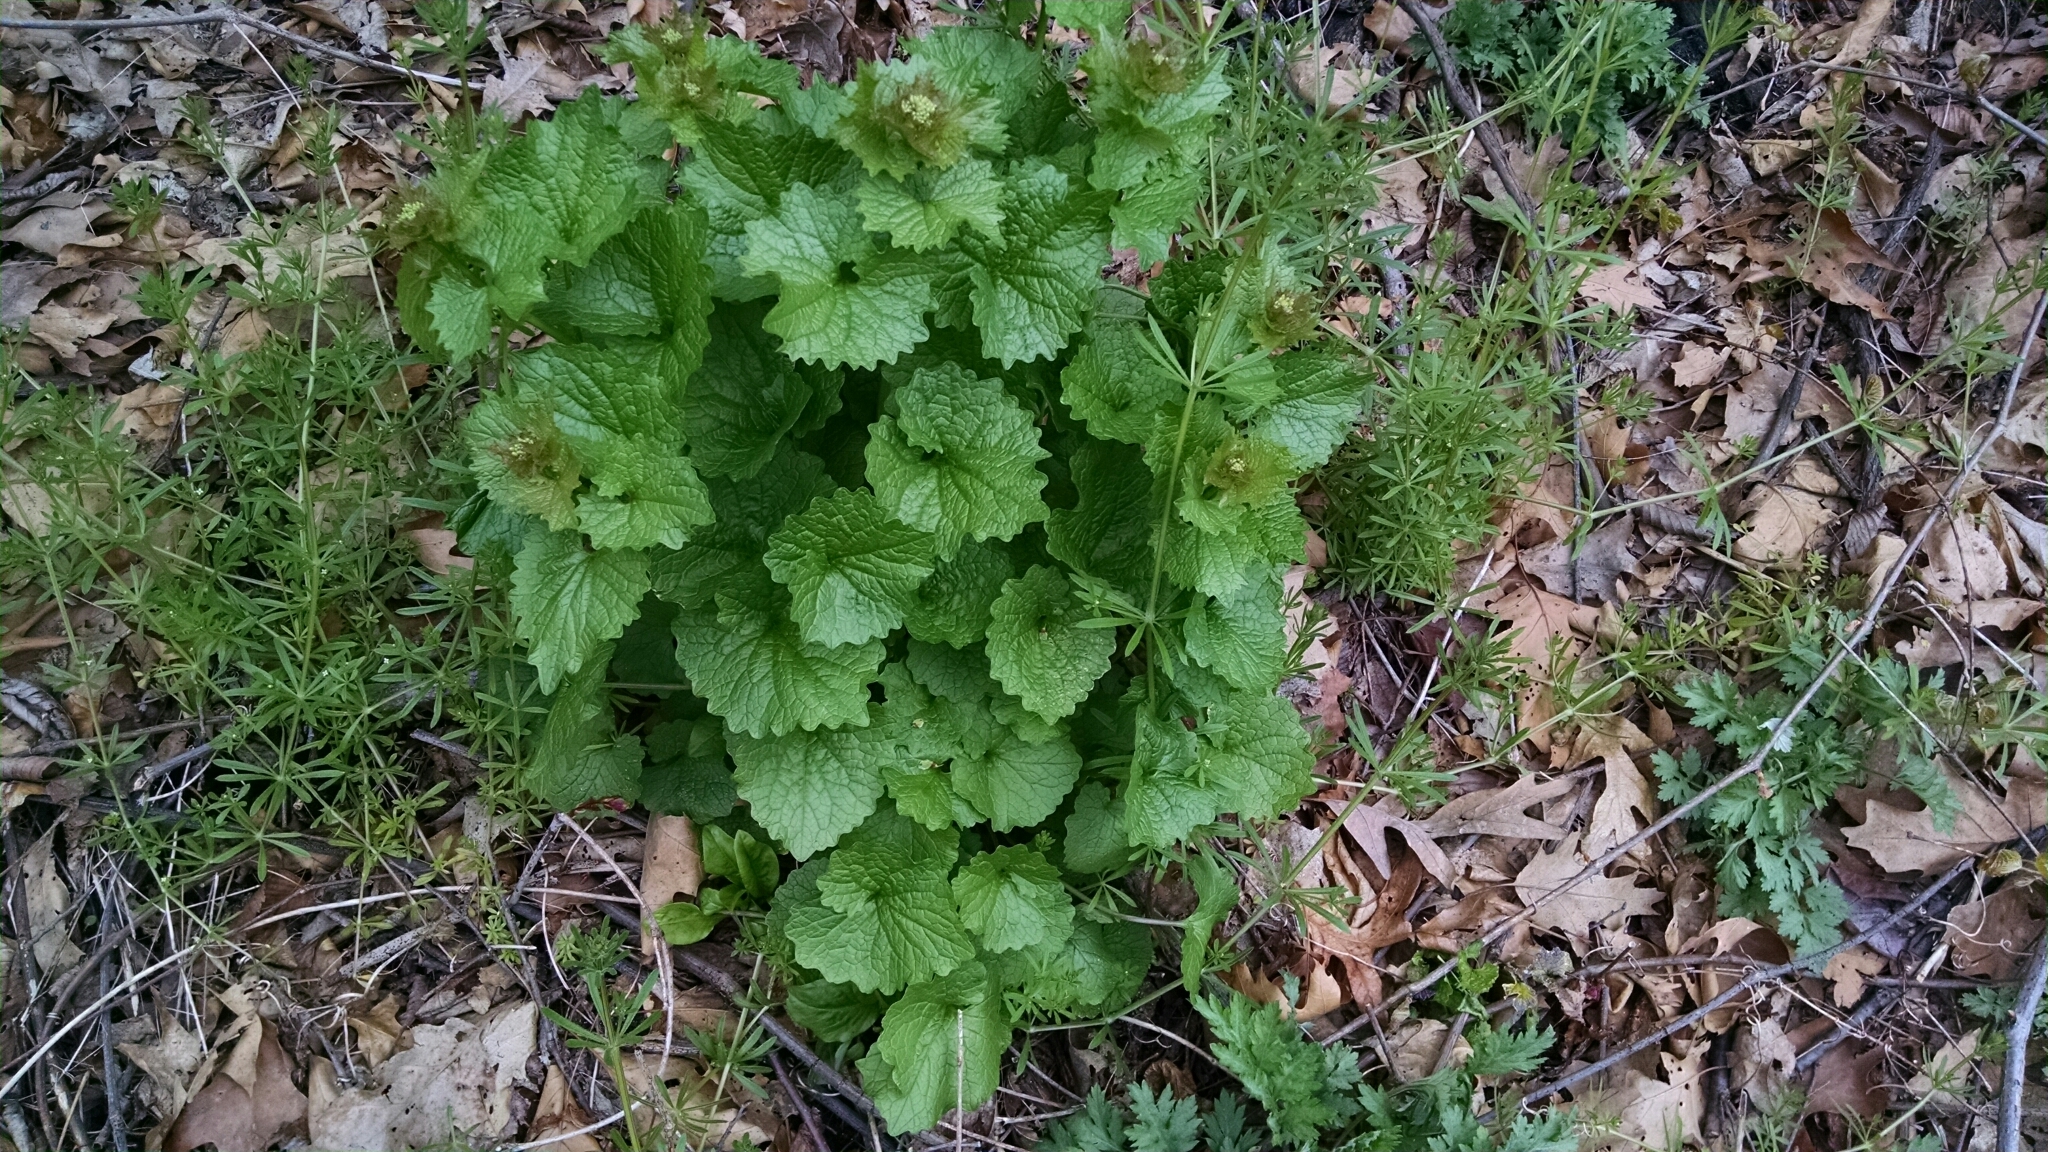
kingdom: Plantae
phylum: Tracheophyta
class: Magnoliopsida
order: Brassicales
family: Brassicaceae
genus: Alliaria
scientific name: Alliaria petiolata
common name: Garlic mustard
